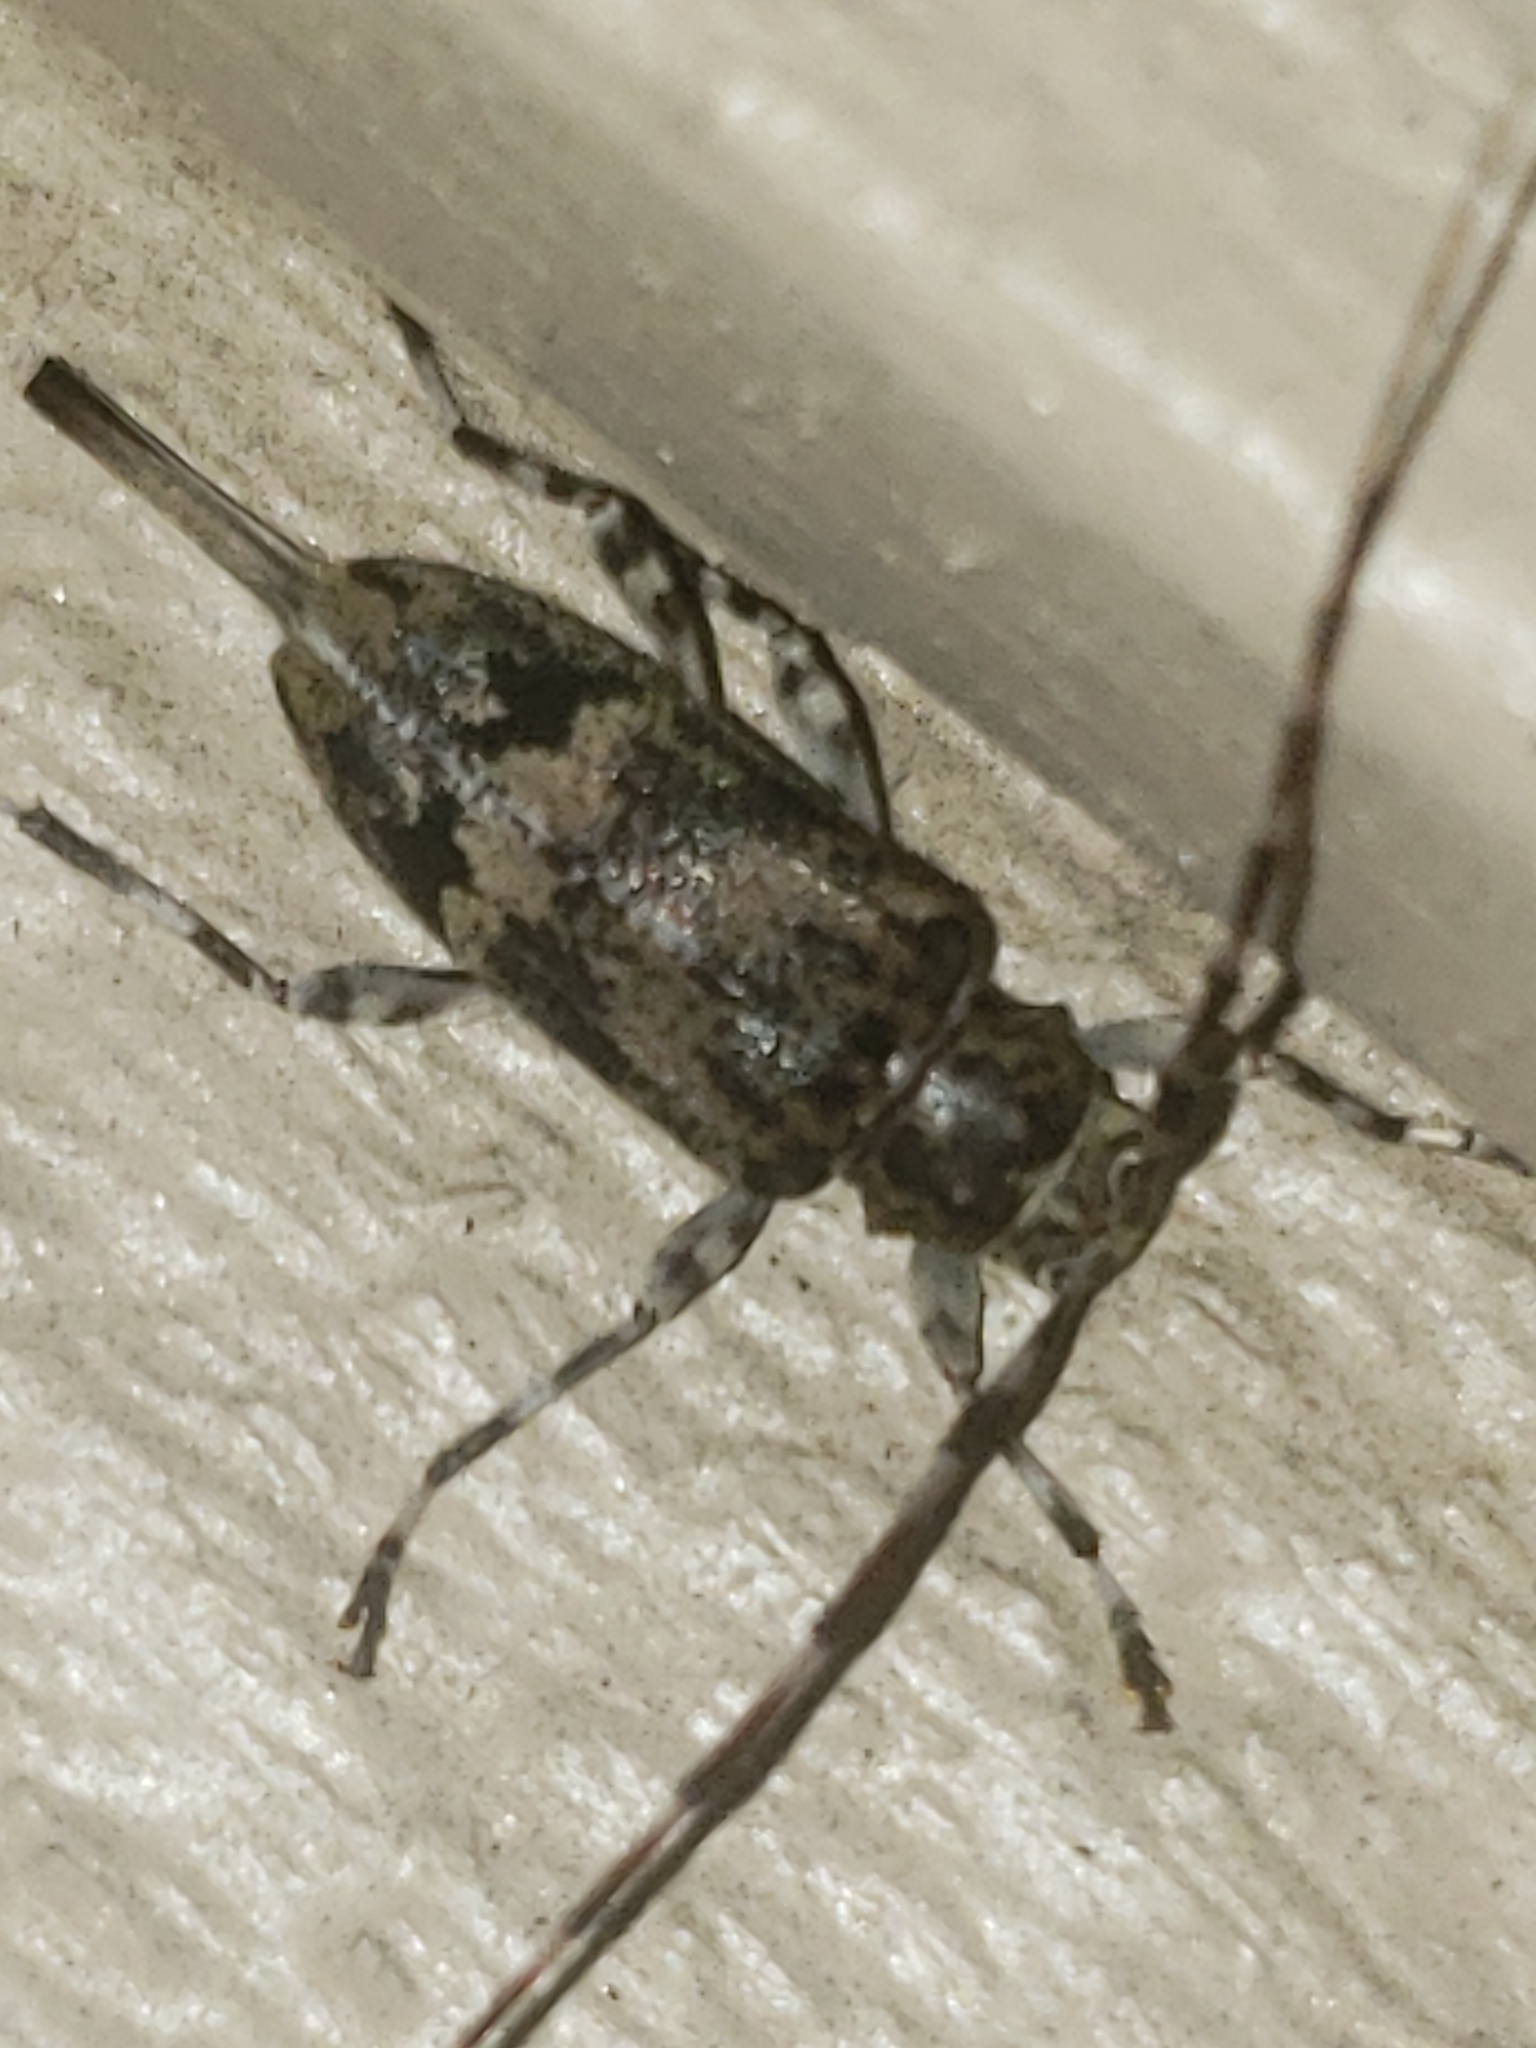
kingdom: Animalia
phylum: Arthropoda
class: Insecta
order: Coleoptera
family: Cerambycidae
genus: Graphisurus
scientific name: Graphisurus fasciatus
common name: Banded graphisurus
